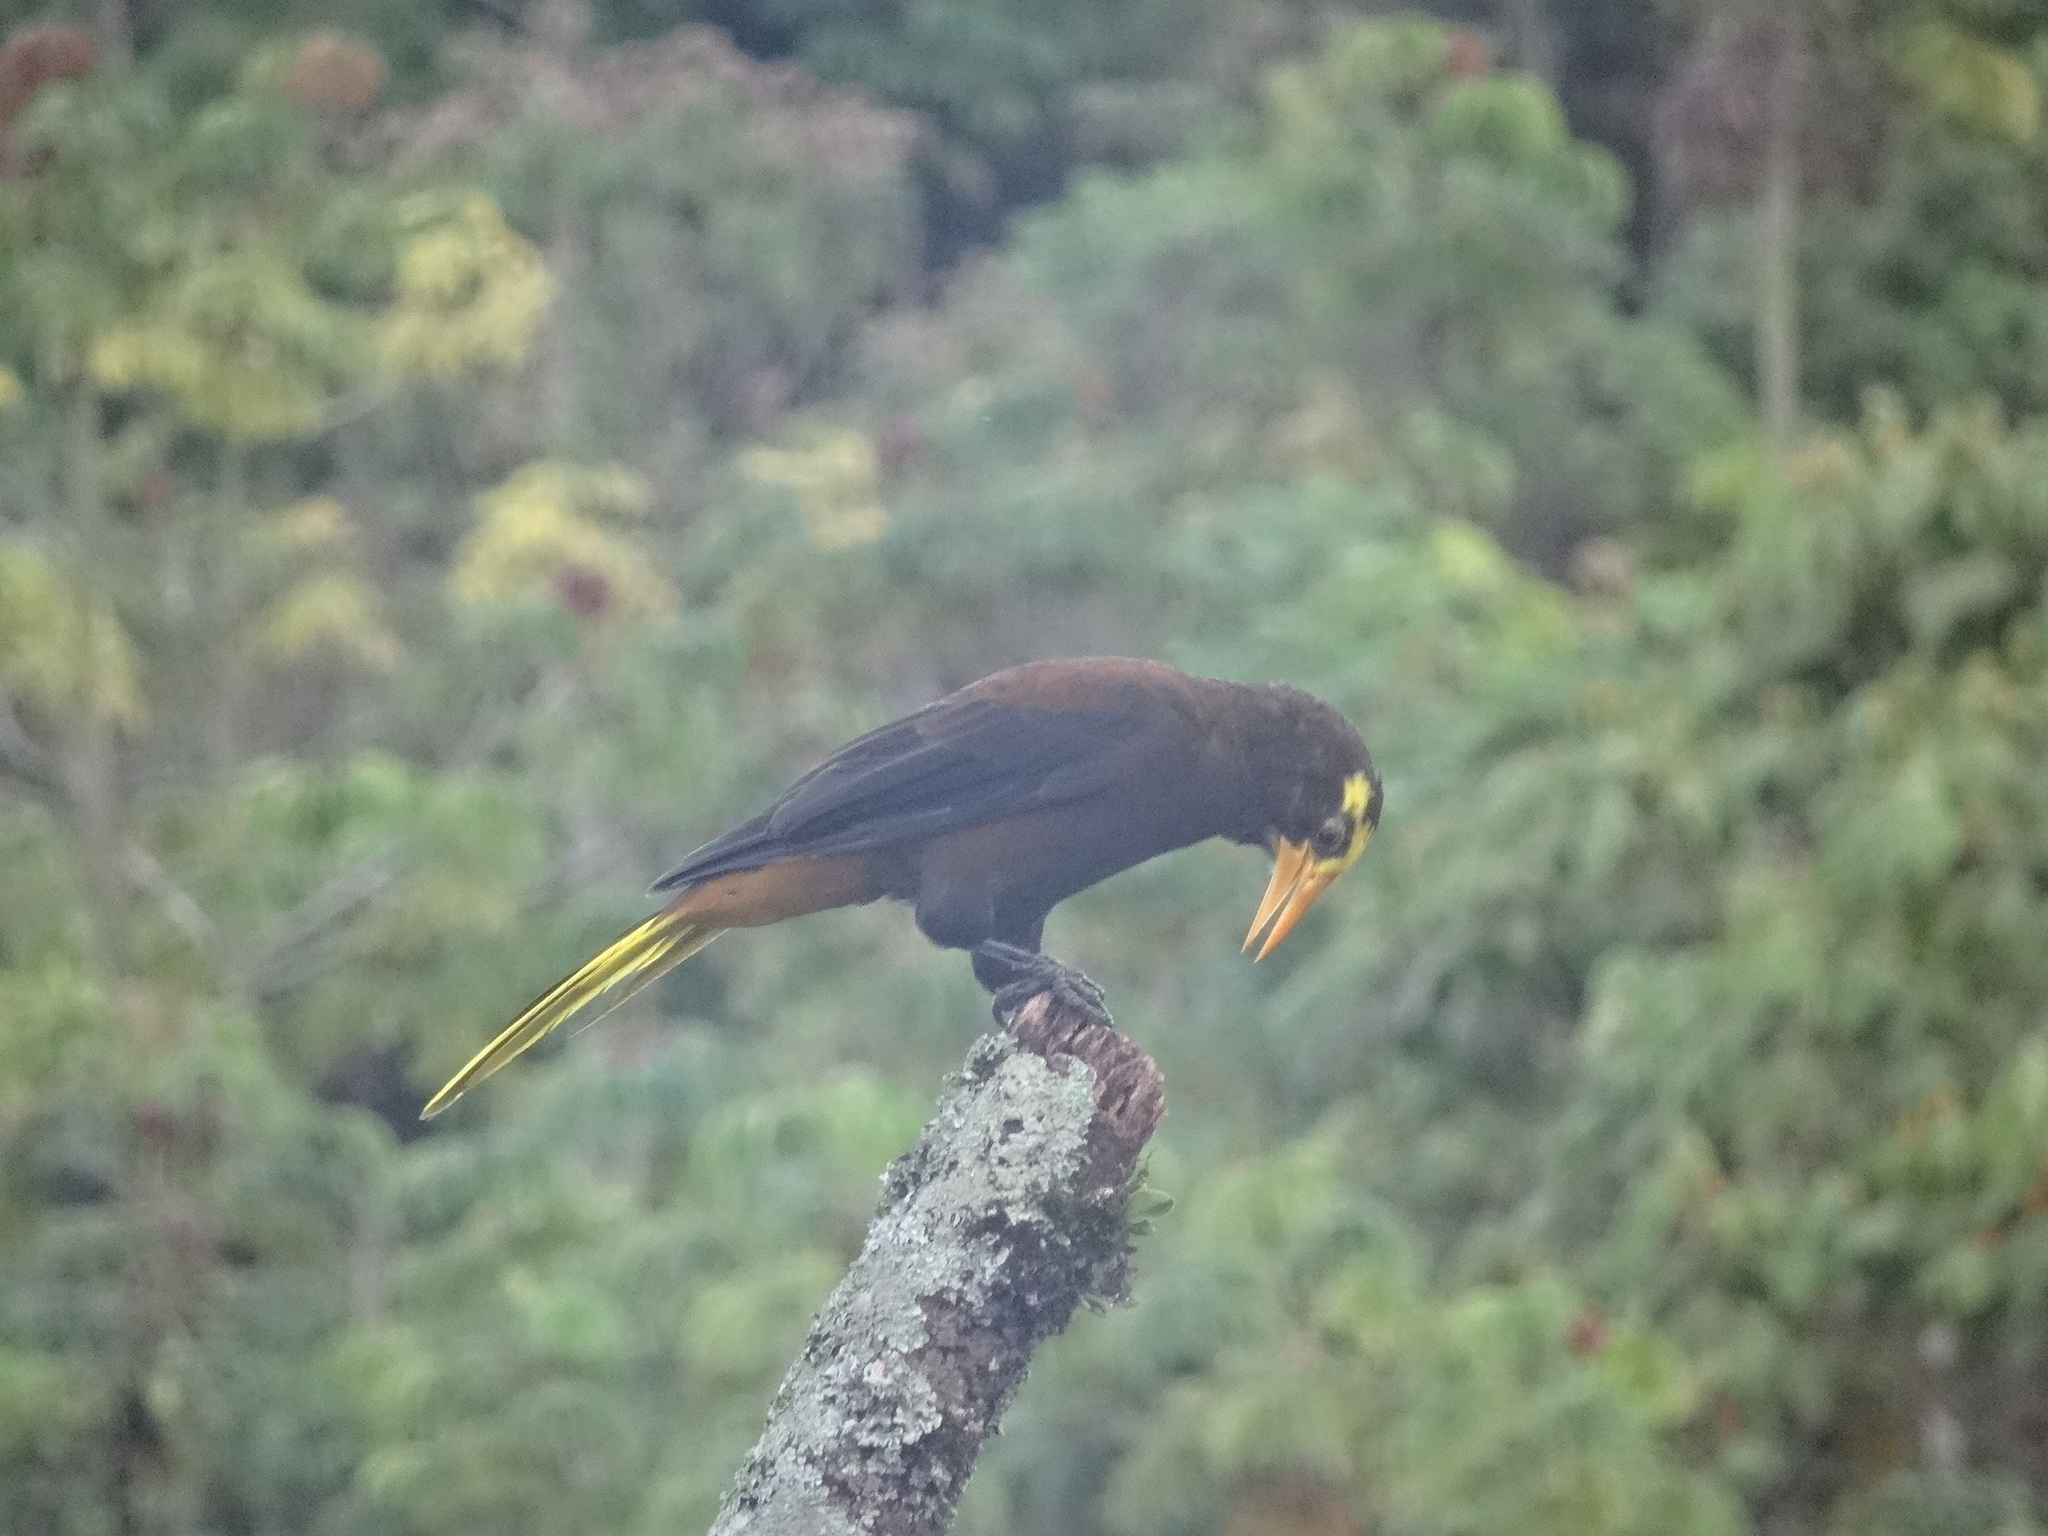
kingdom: Animalia
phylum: Chordata
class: Aves
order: Passeriformes
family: Icteridae
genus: Psarocolius
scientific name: Psarocolius angustifrons
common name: Russet-backed oropendola
